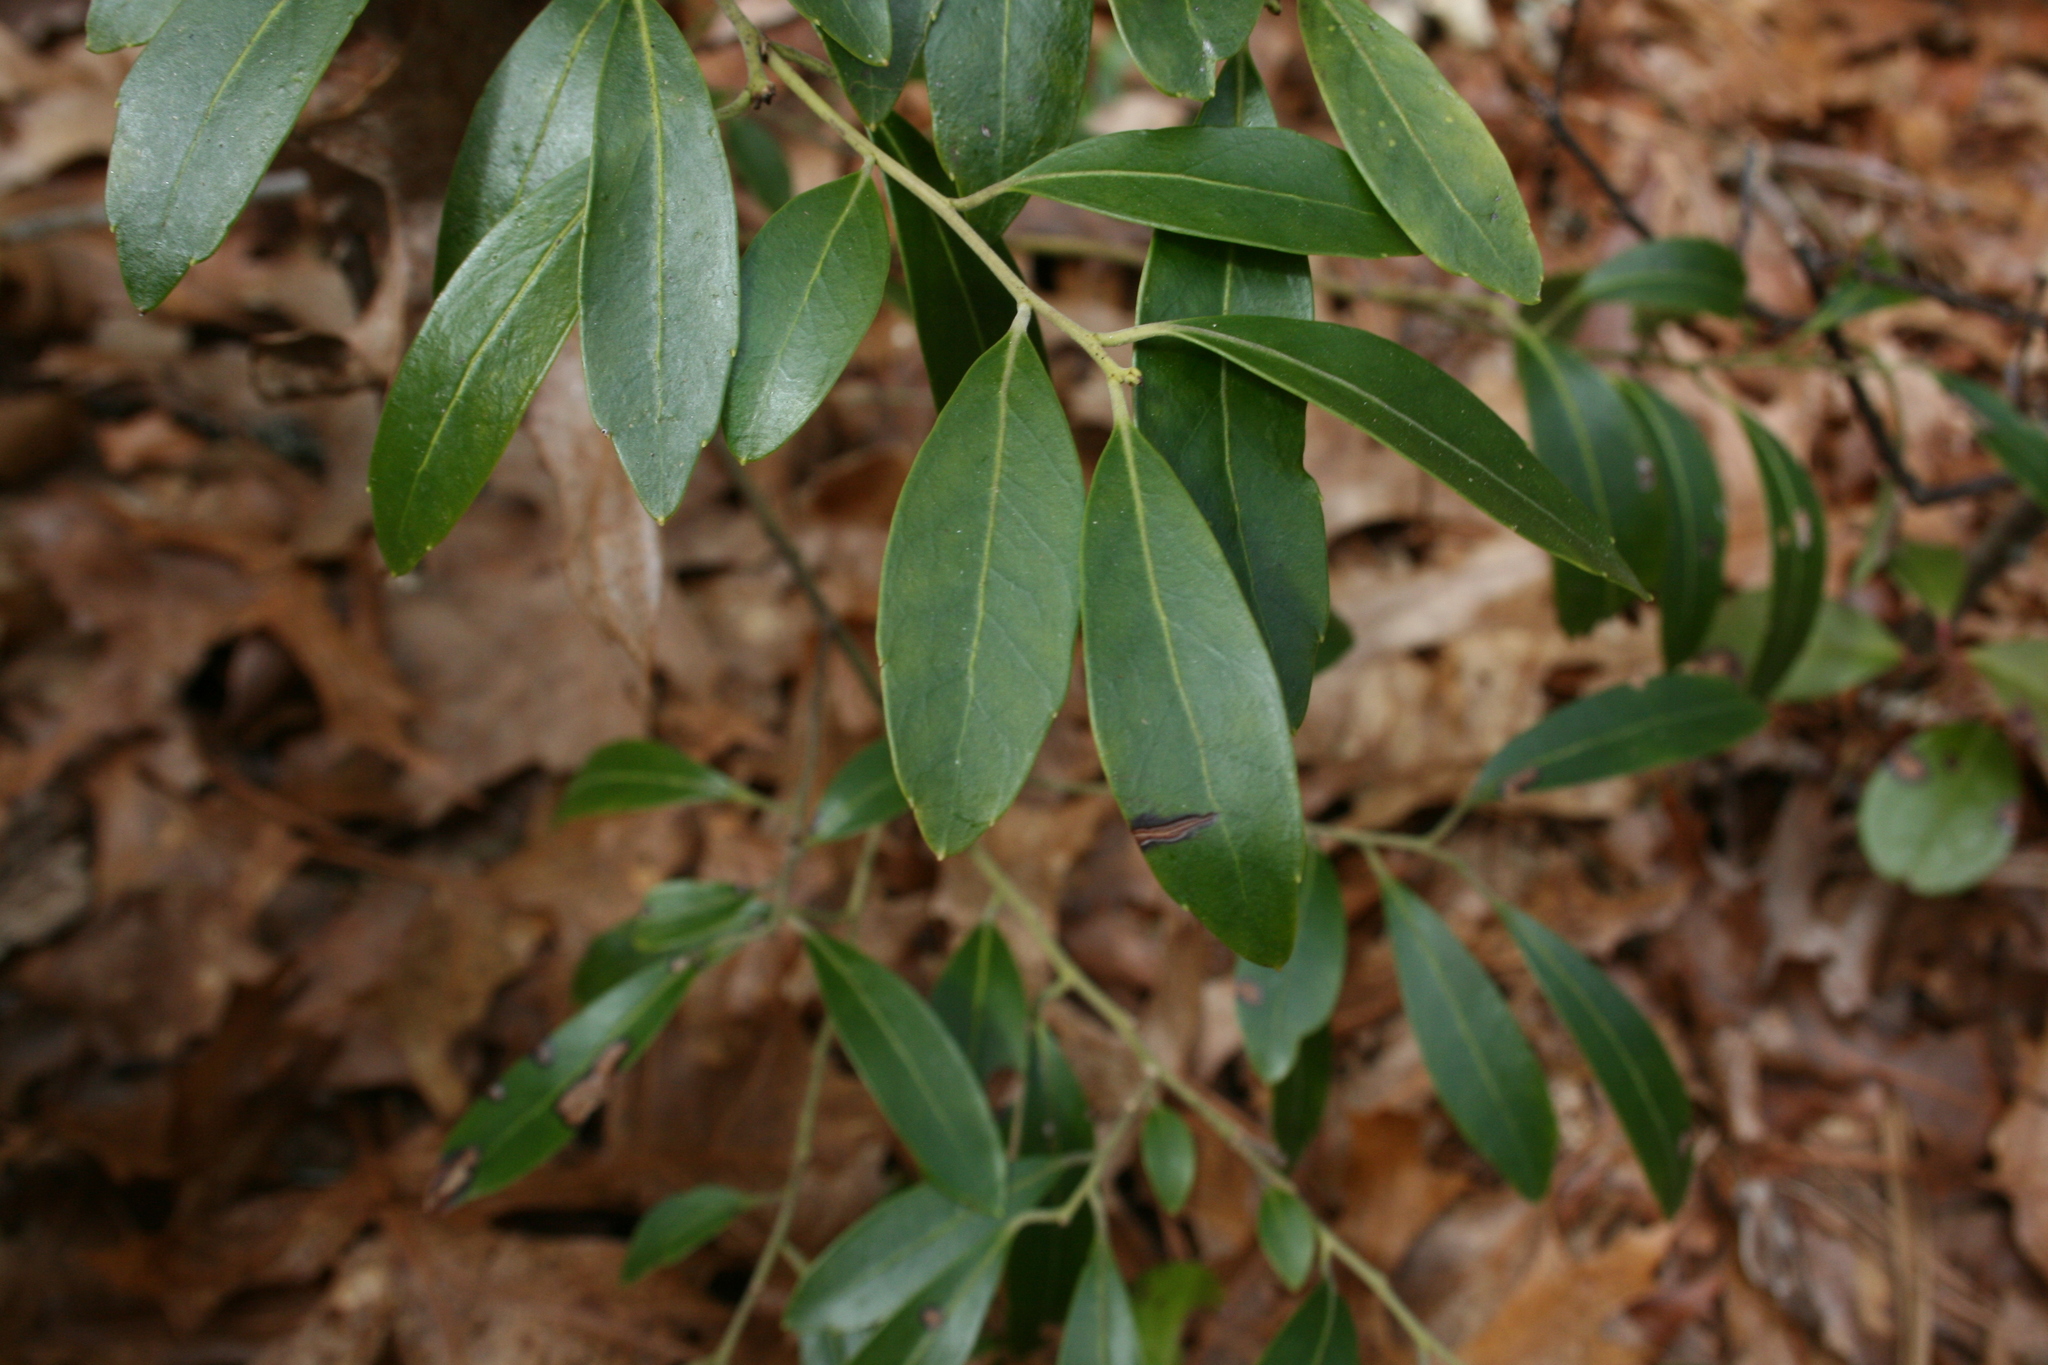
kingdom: Plantae
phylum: Tracheophyta
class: Magnoliopsida
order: Aquifoliales
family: Aquifoliaceae
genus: Ilex
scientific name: Ilex glabra
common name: Bitter gallberry
